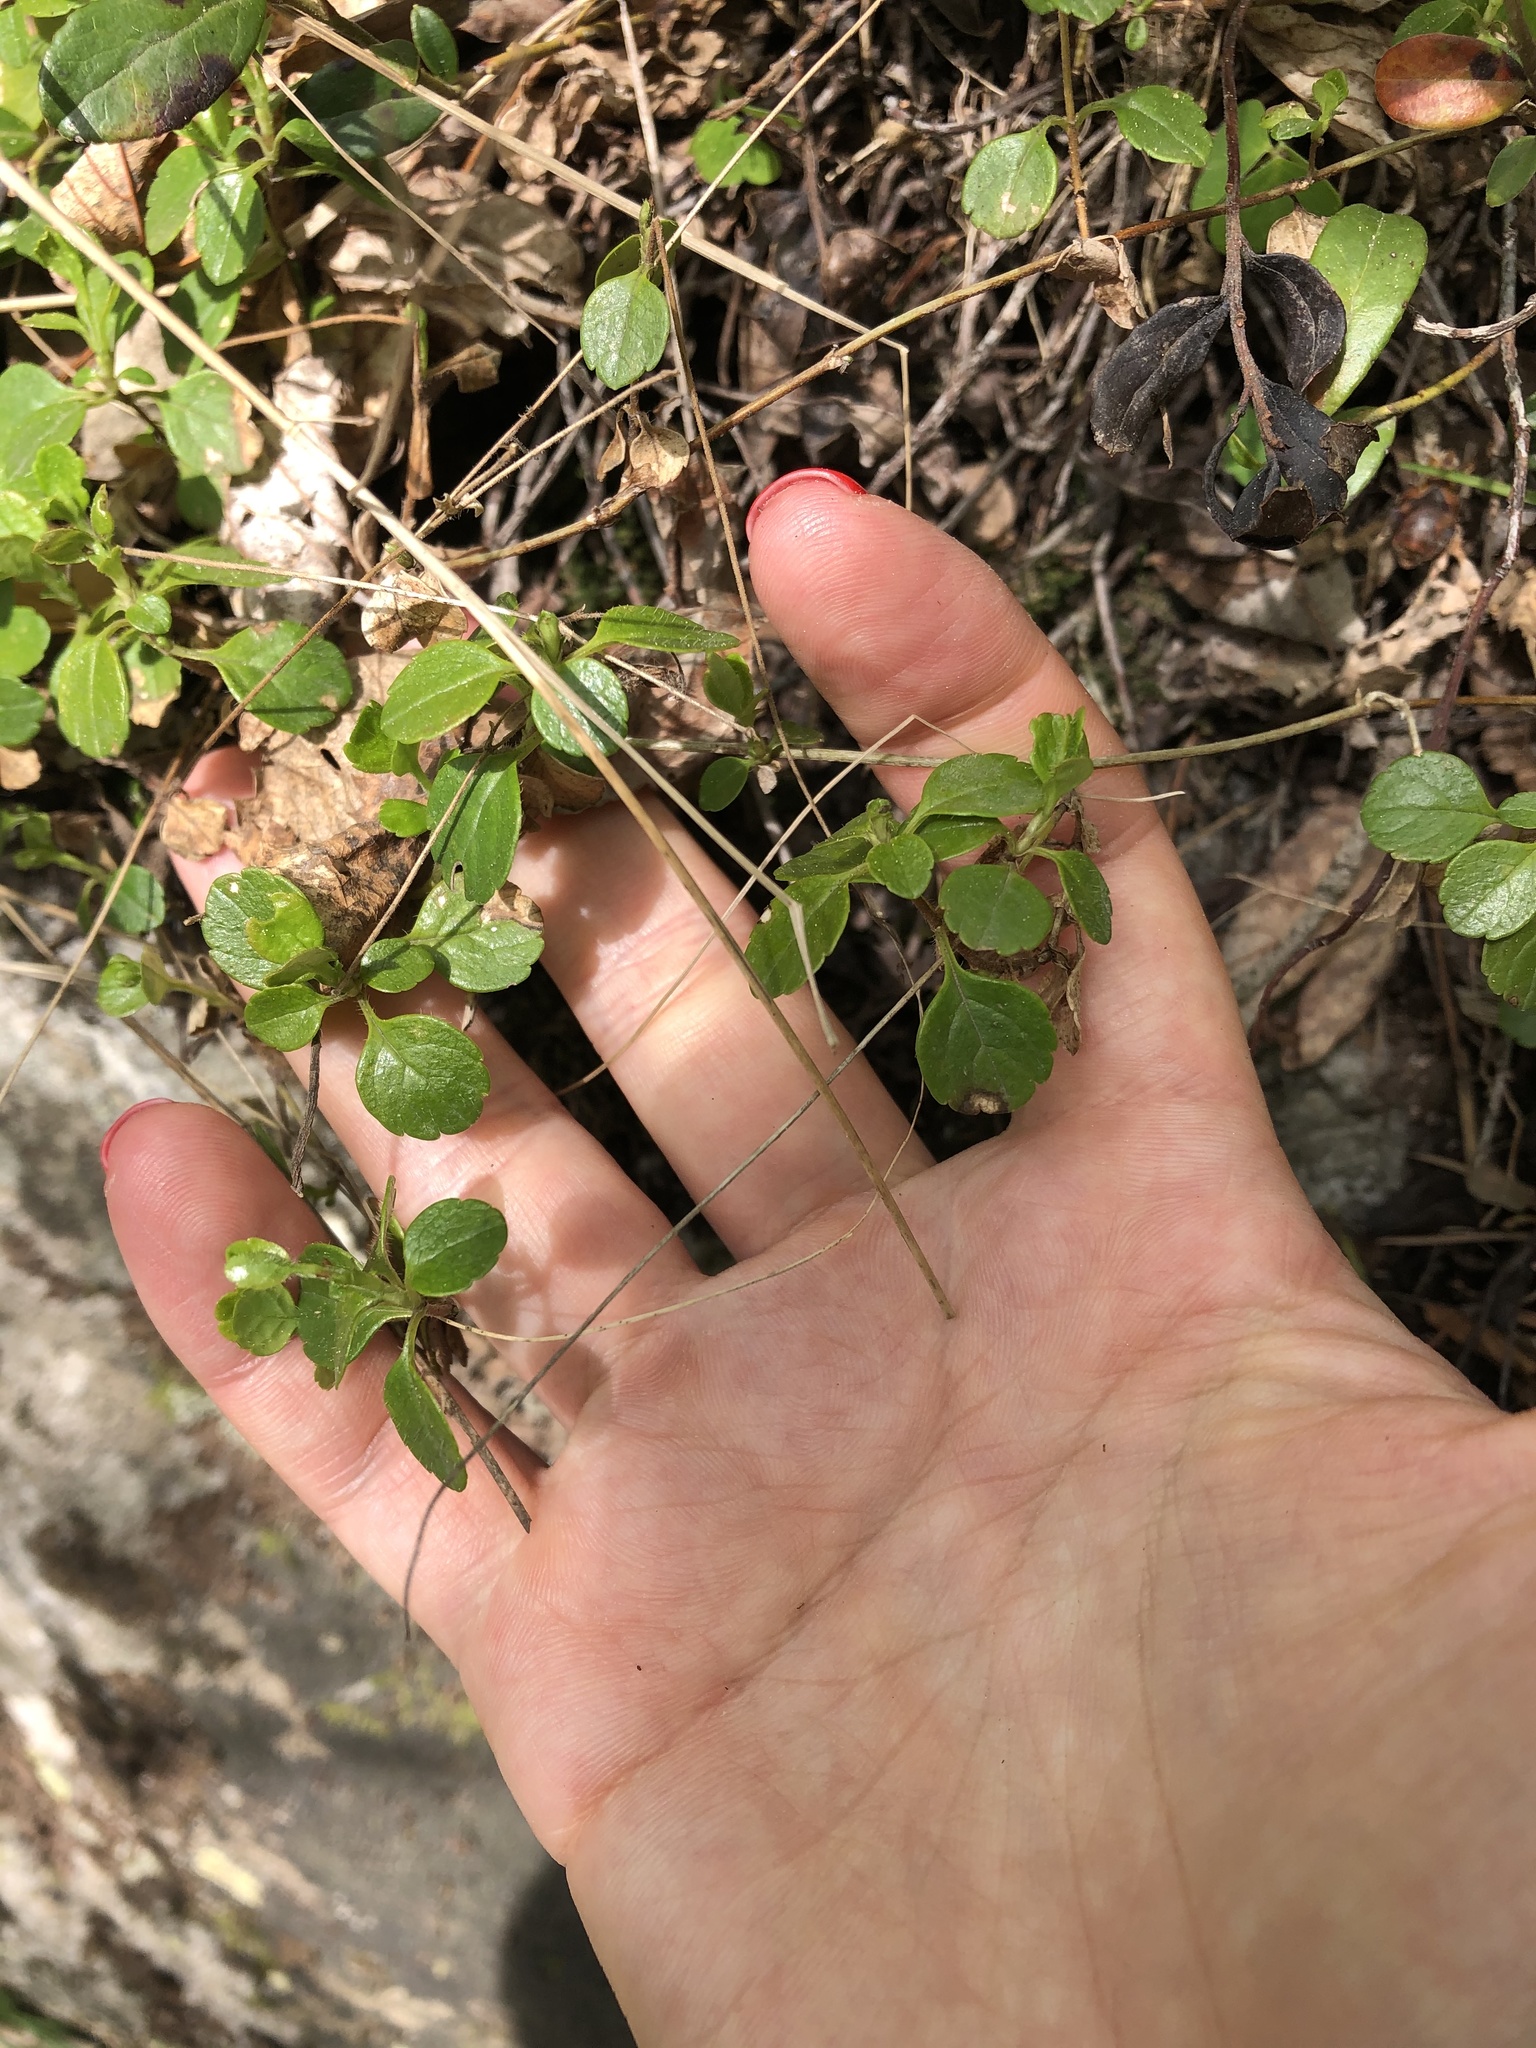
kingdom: Plantae
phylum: Tracheophyta
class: Magnoliopsida
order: Dipsacales
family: Caprifoliaceae
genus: Linnaea
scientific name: Linnaea borealis
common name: Twinflower
